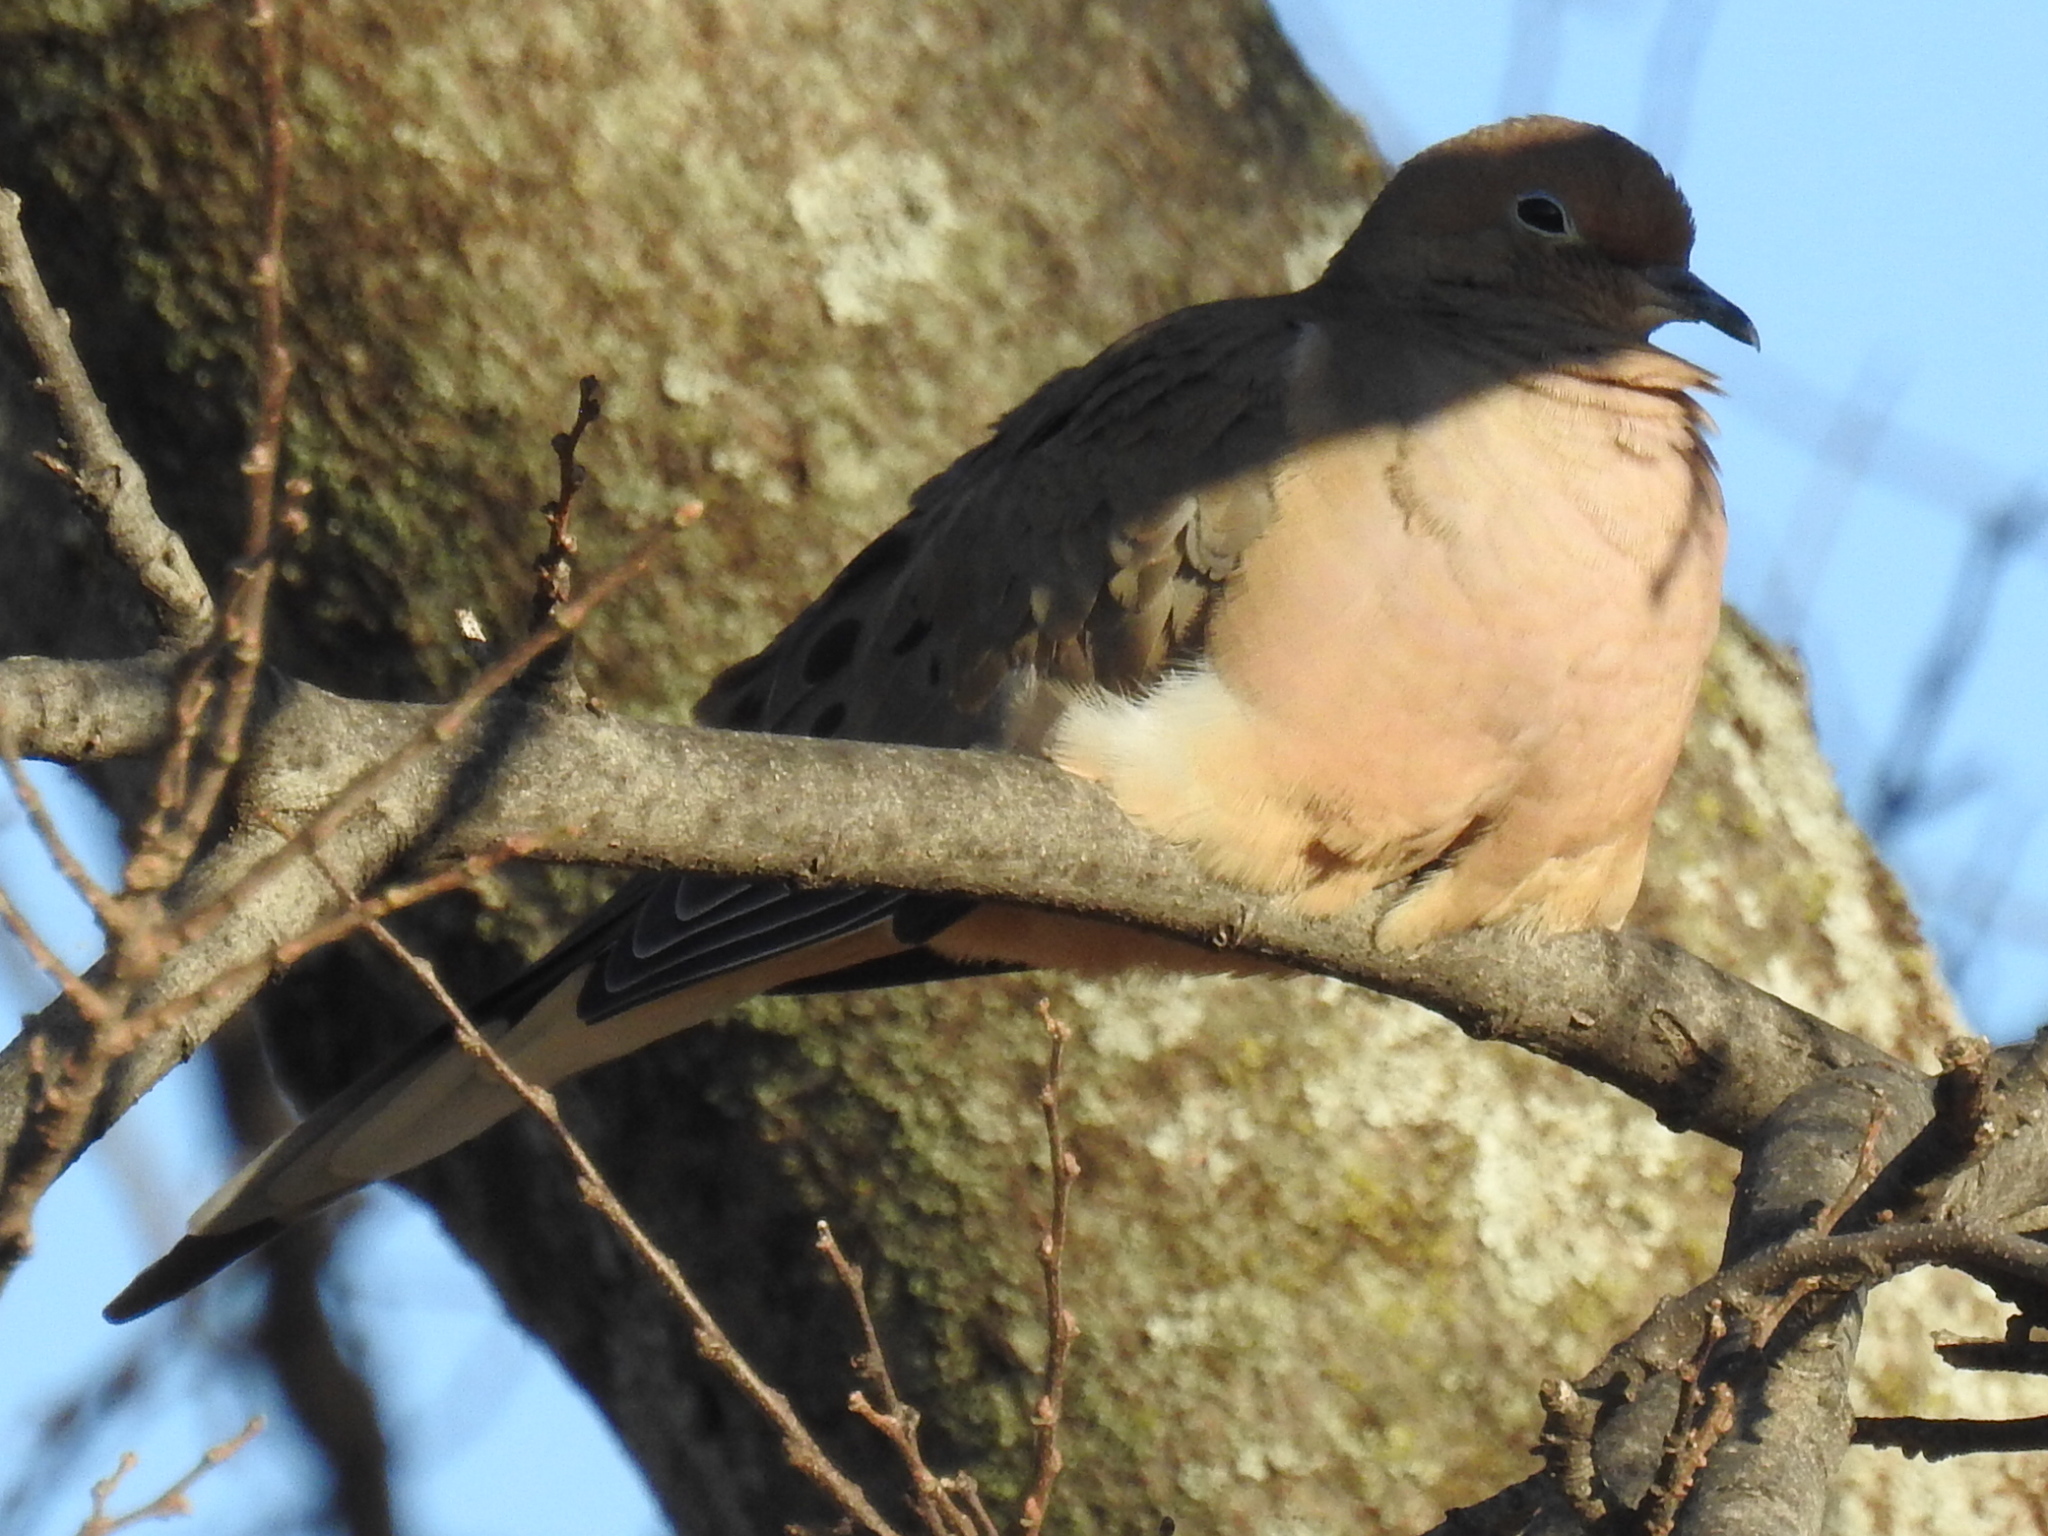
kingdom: Animalia
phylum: Chordata
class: Aves
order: Columbiformes
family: Columbidae
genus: Zenaida
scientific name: Zenaida macroura
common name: Mourning dove
